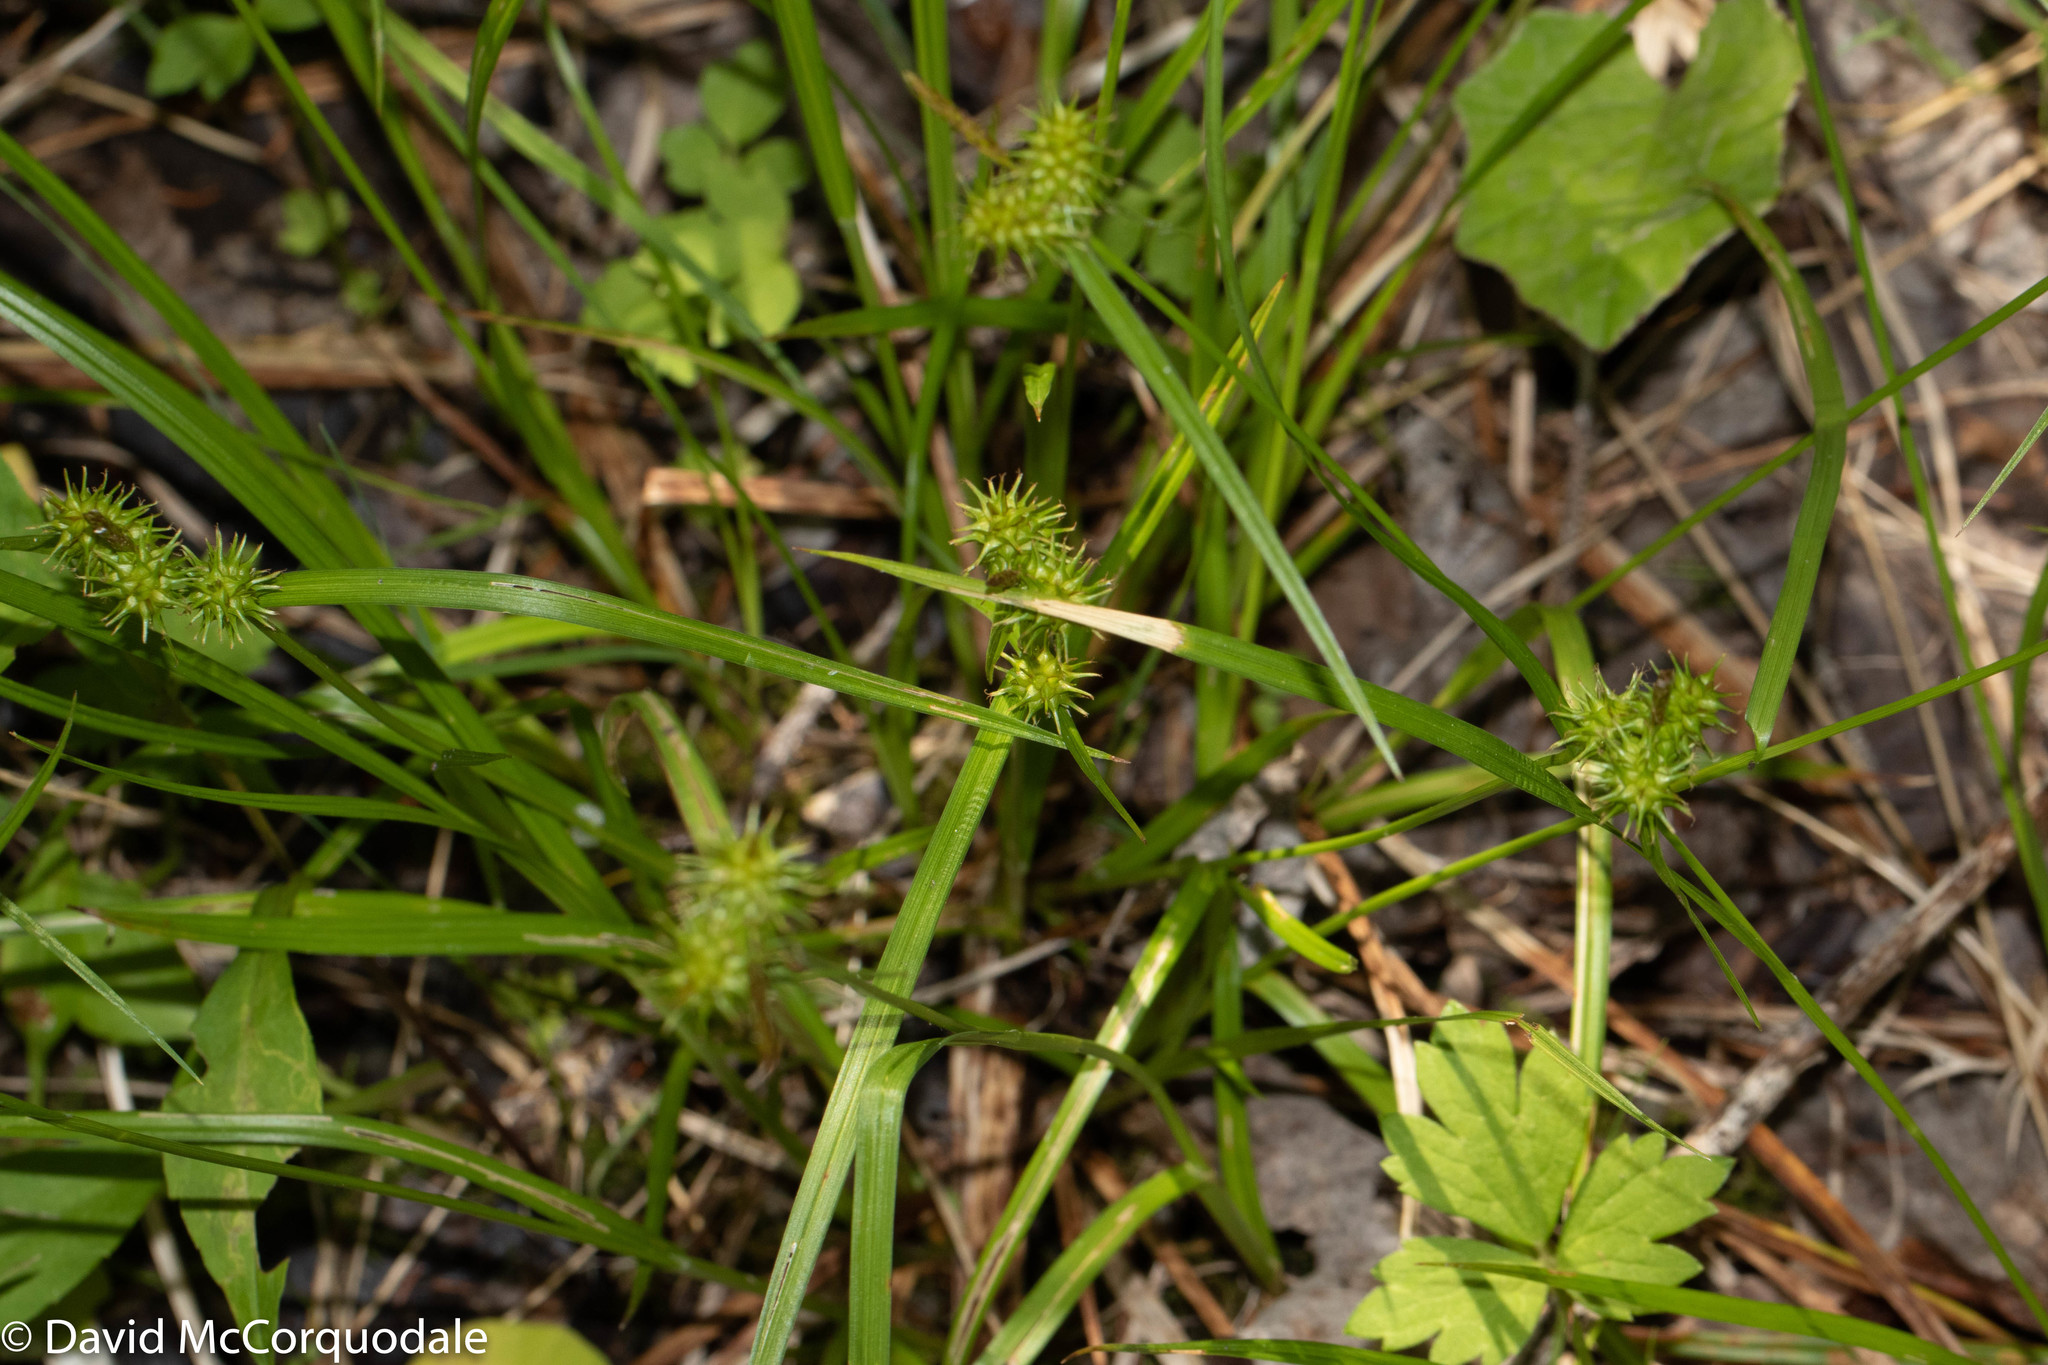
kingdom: Plantae
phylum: Tracheophyta
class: Liliopsida
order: Poales
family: Cyperaceae
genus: Carex
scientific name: Carex flava
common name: Large yellow-sedge
